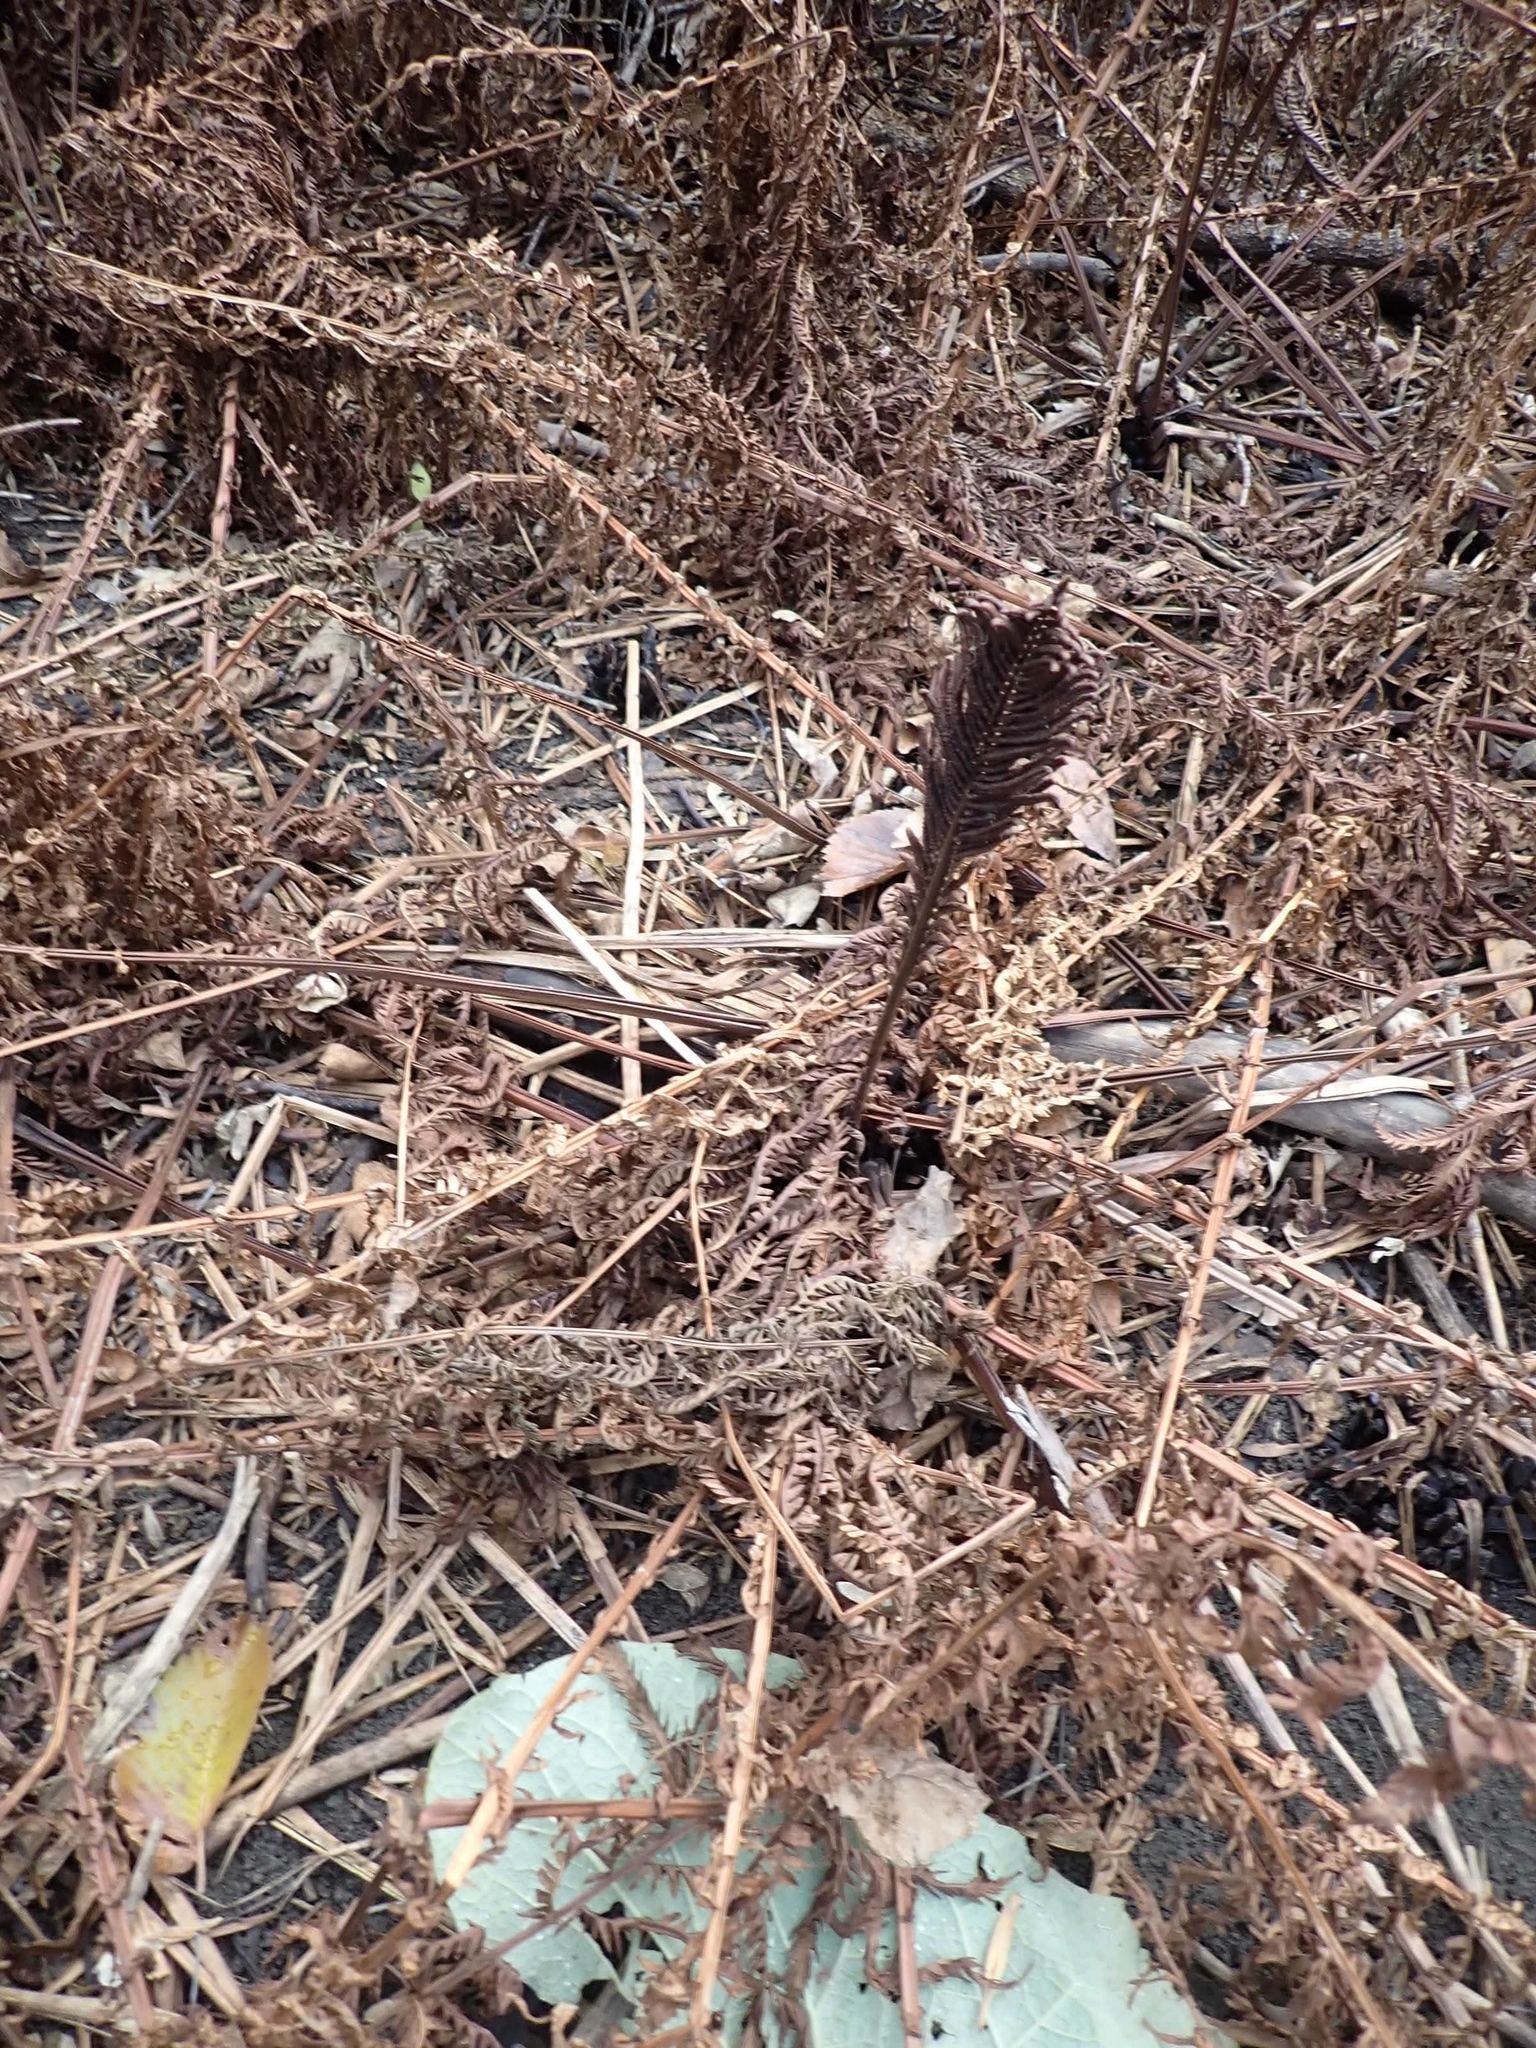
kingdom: Plantae
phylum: Tracheophyta
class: Polypodiopsida
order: Polypodiales
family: Onocleaceae
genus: Matteuccia
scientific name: Matteuccia struthiopteris
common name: Ostrich fern
